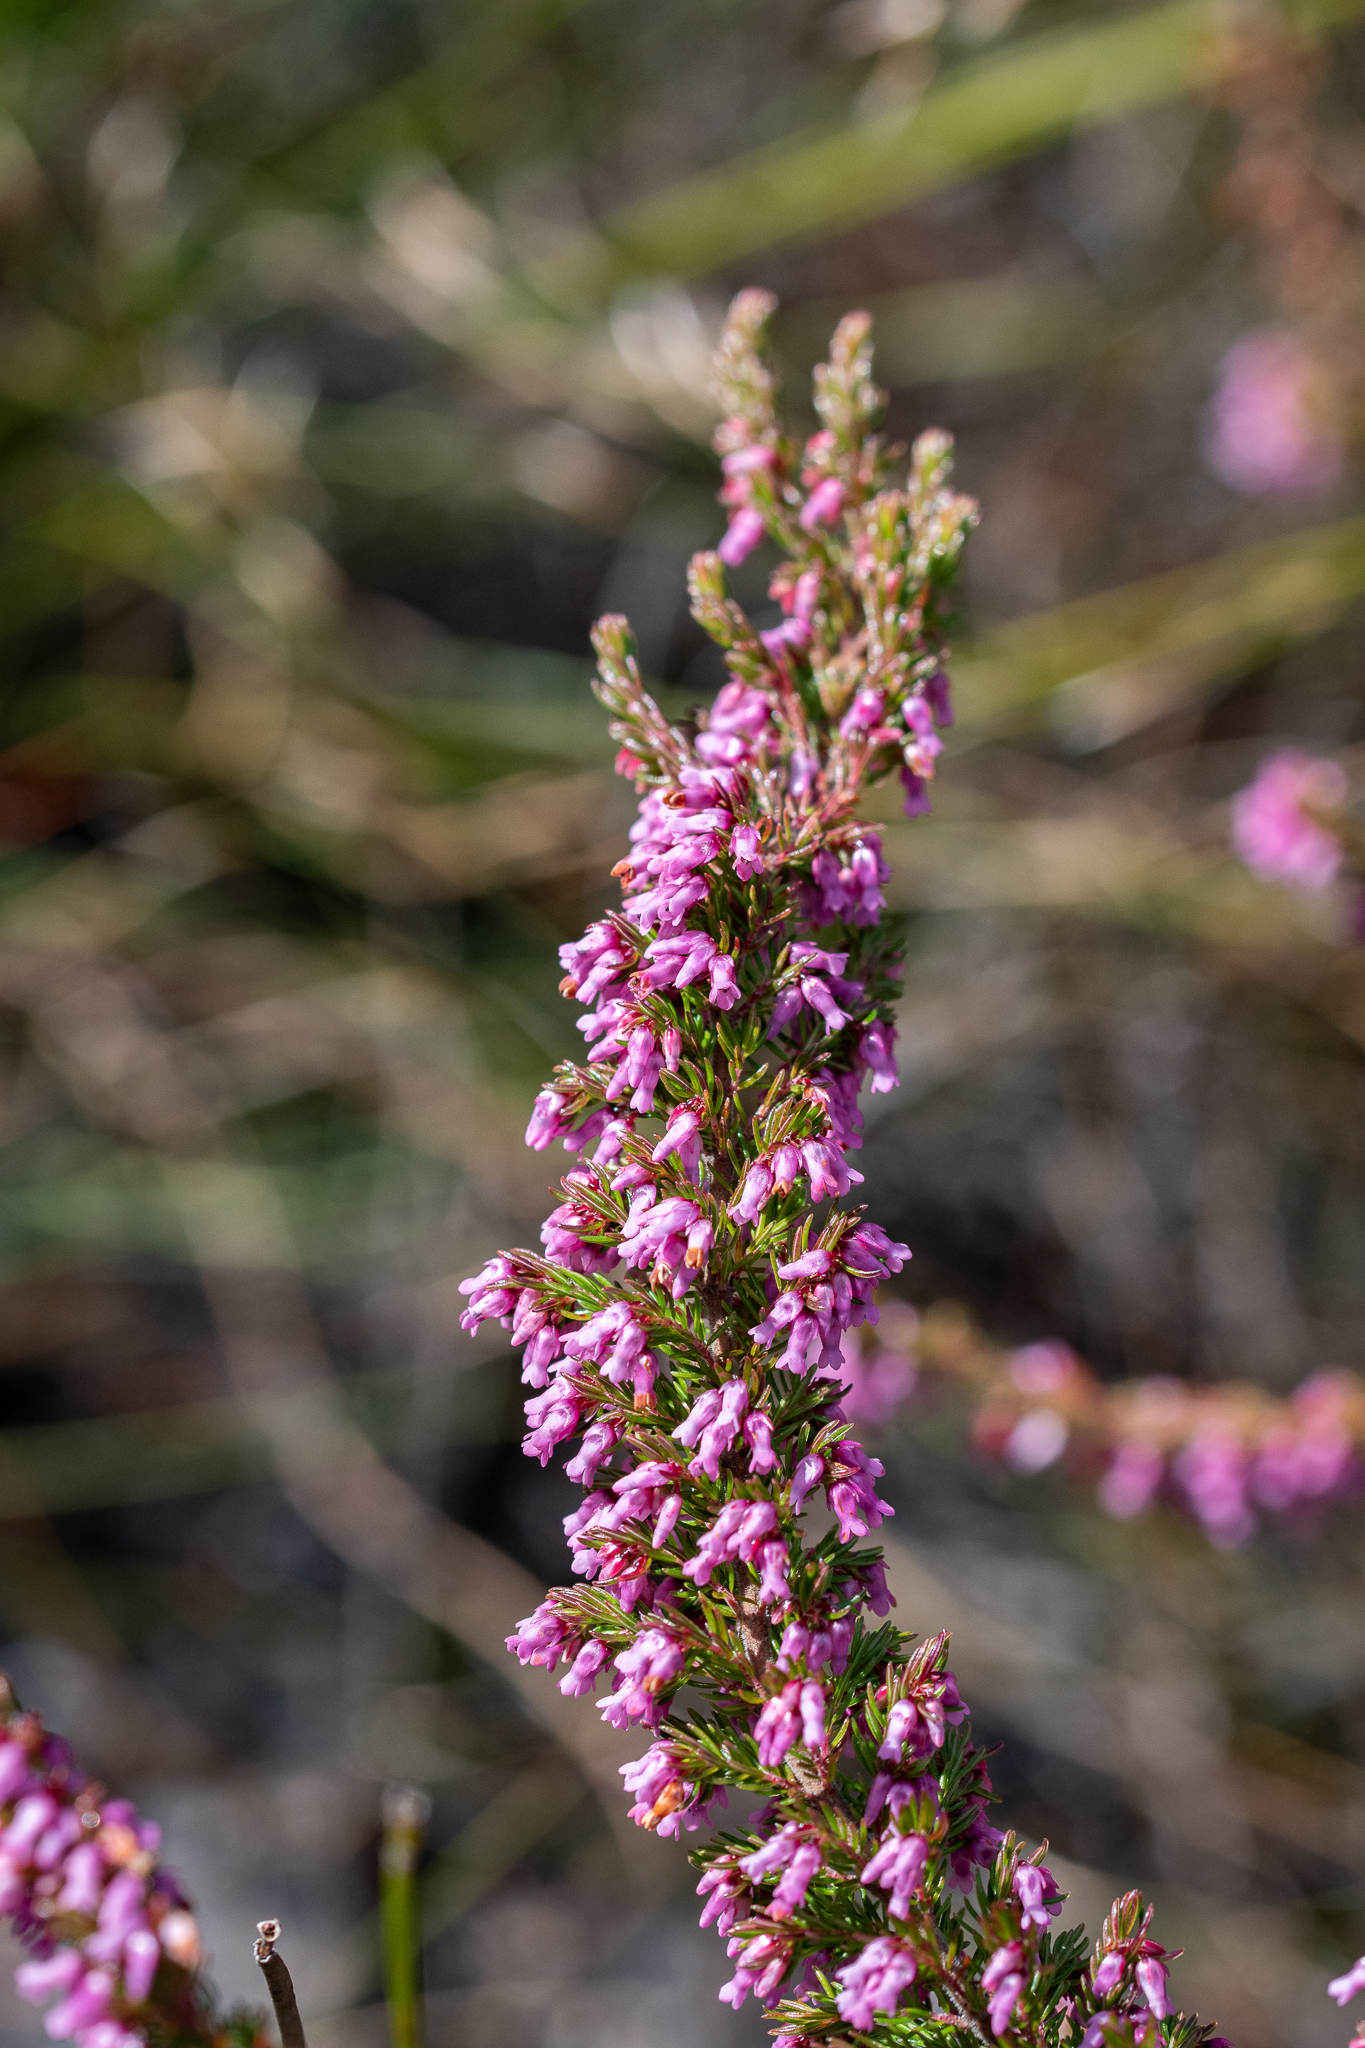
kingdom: Plantae
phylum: Tracheophyta
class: Magnoliopsida
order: Ericales
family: Ericaceae
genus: Erica
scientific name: Erica intervallaris
